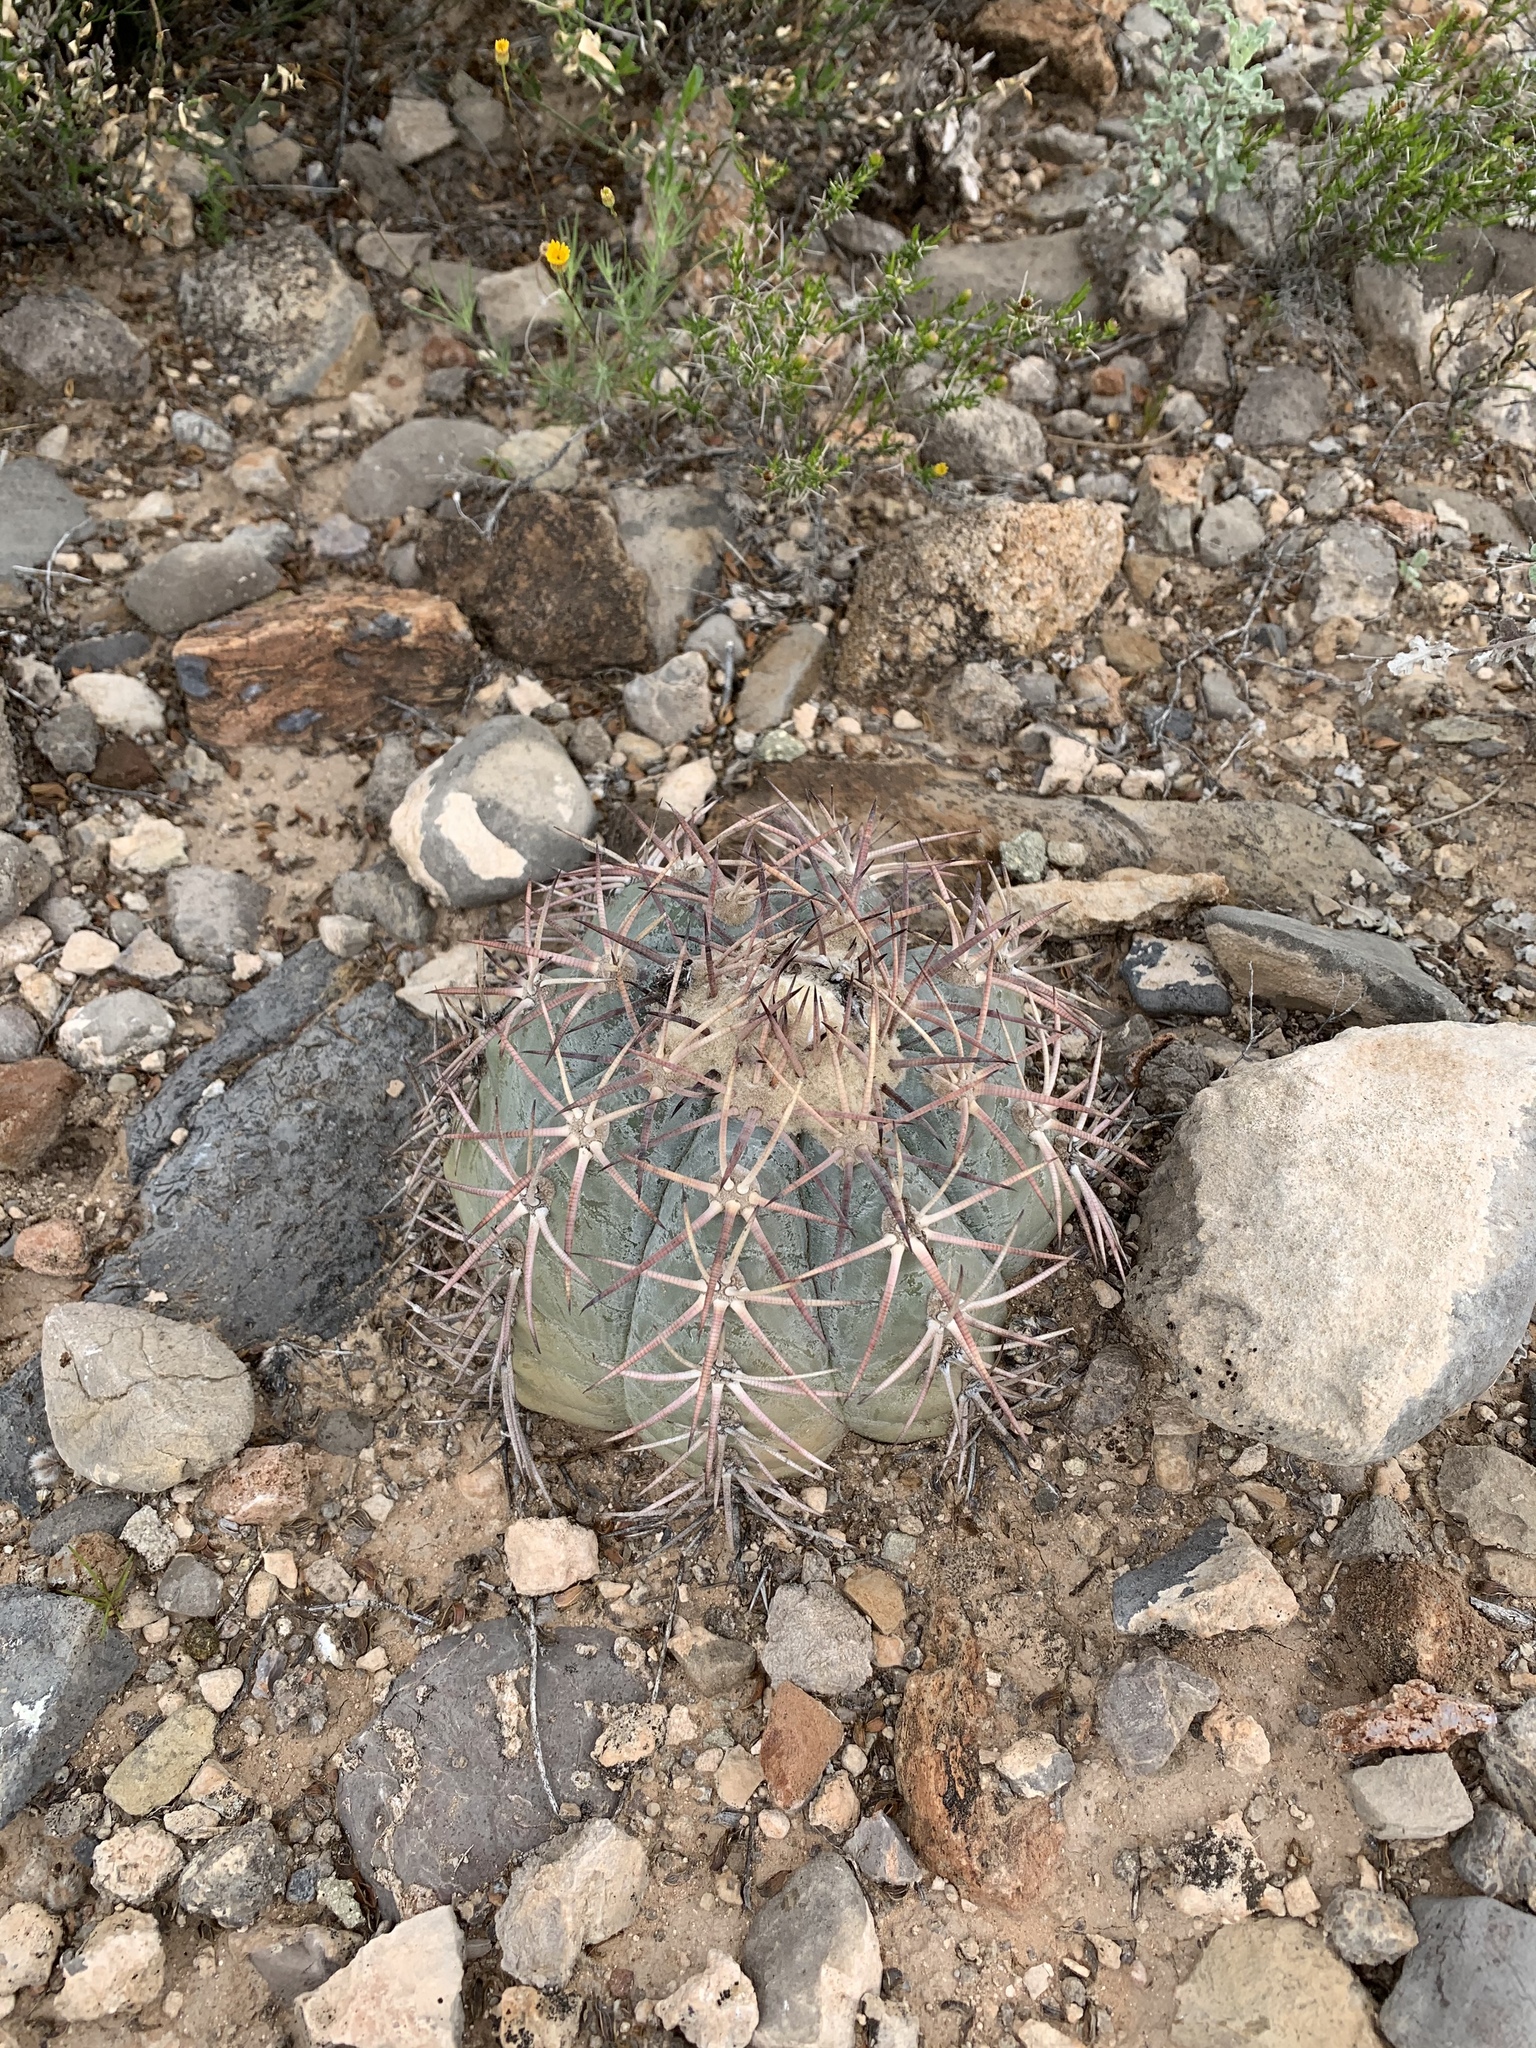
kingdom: Plantae
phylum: Tracheophyta
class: Magnoliopsida
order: Caryophyllales
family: Cactaceae
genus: Echinocactus
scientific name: Echinocactus horizonthalonius
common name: Devilshead
